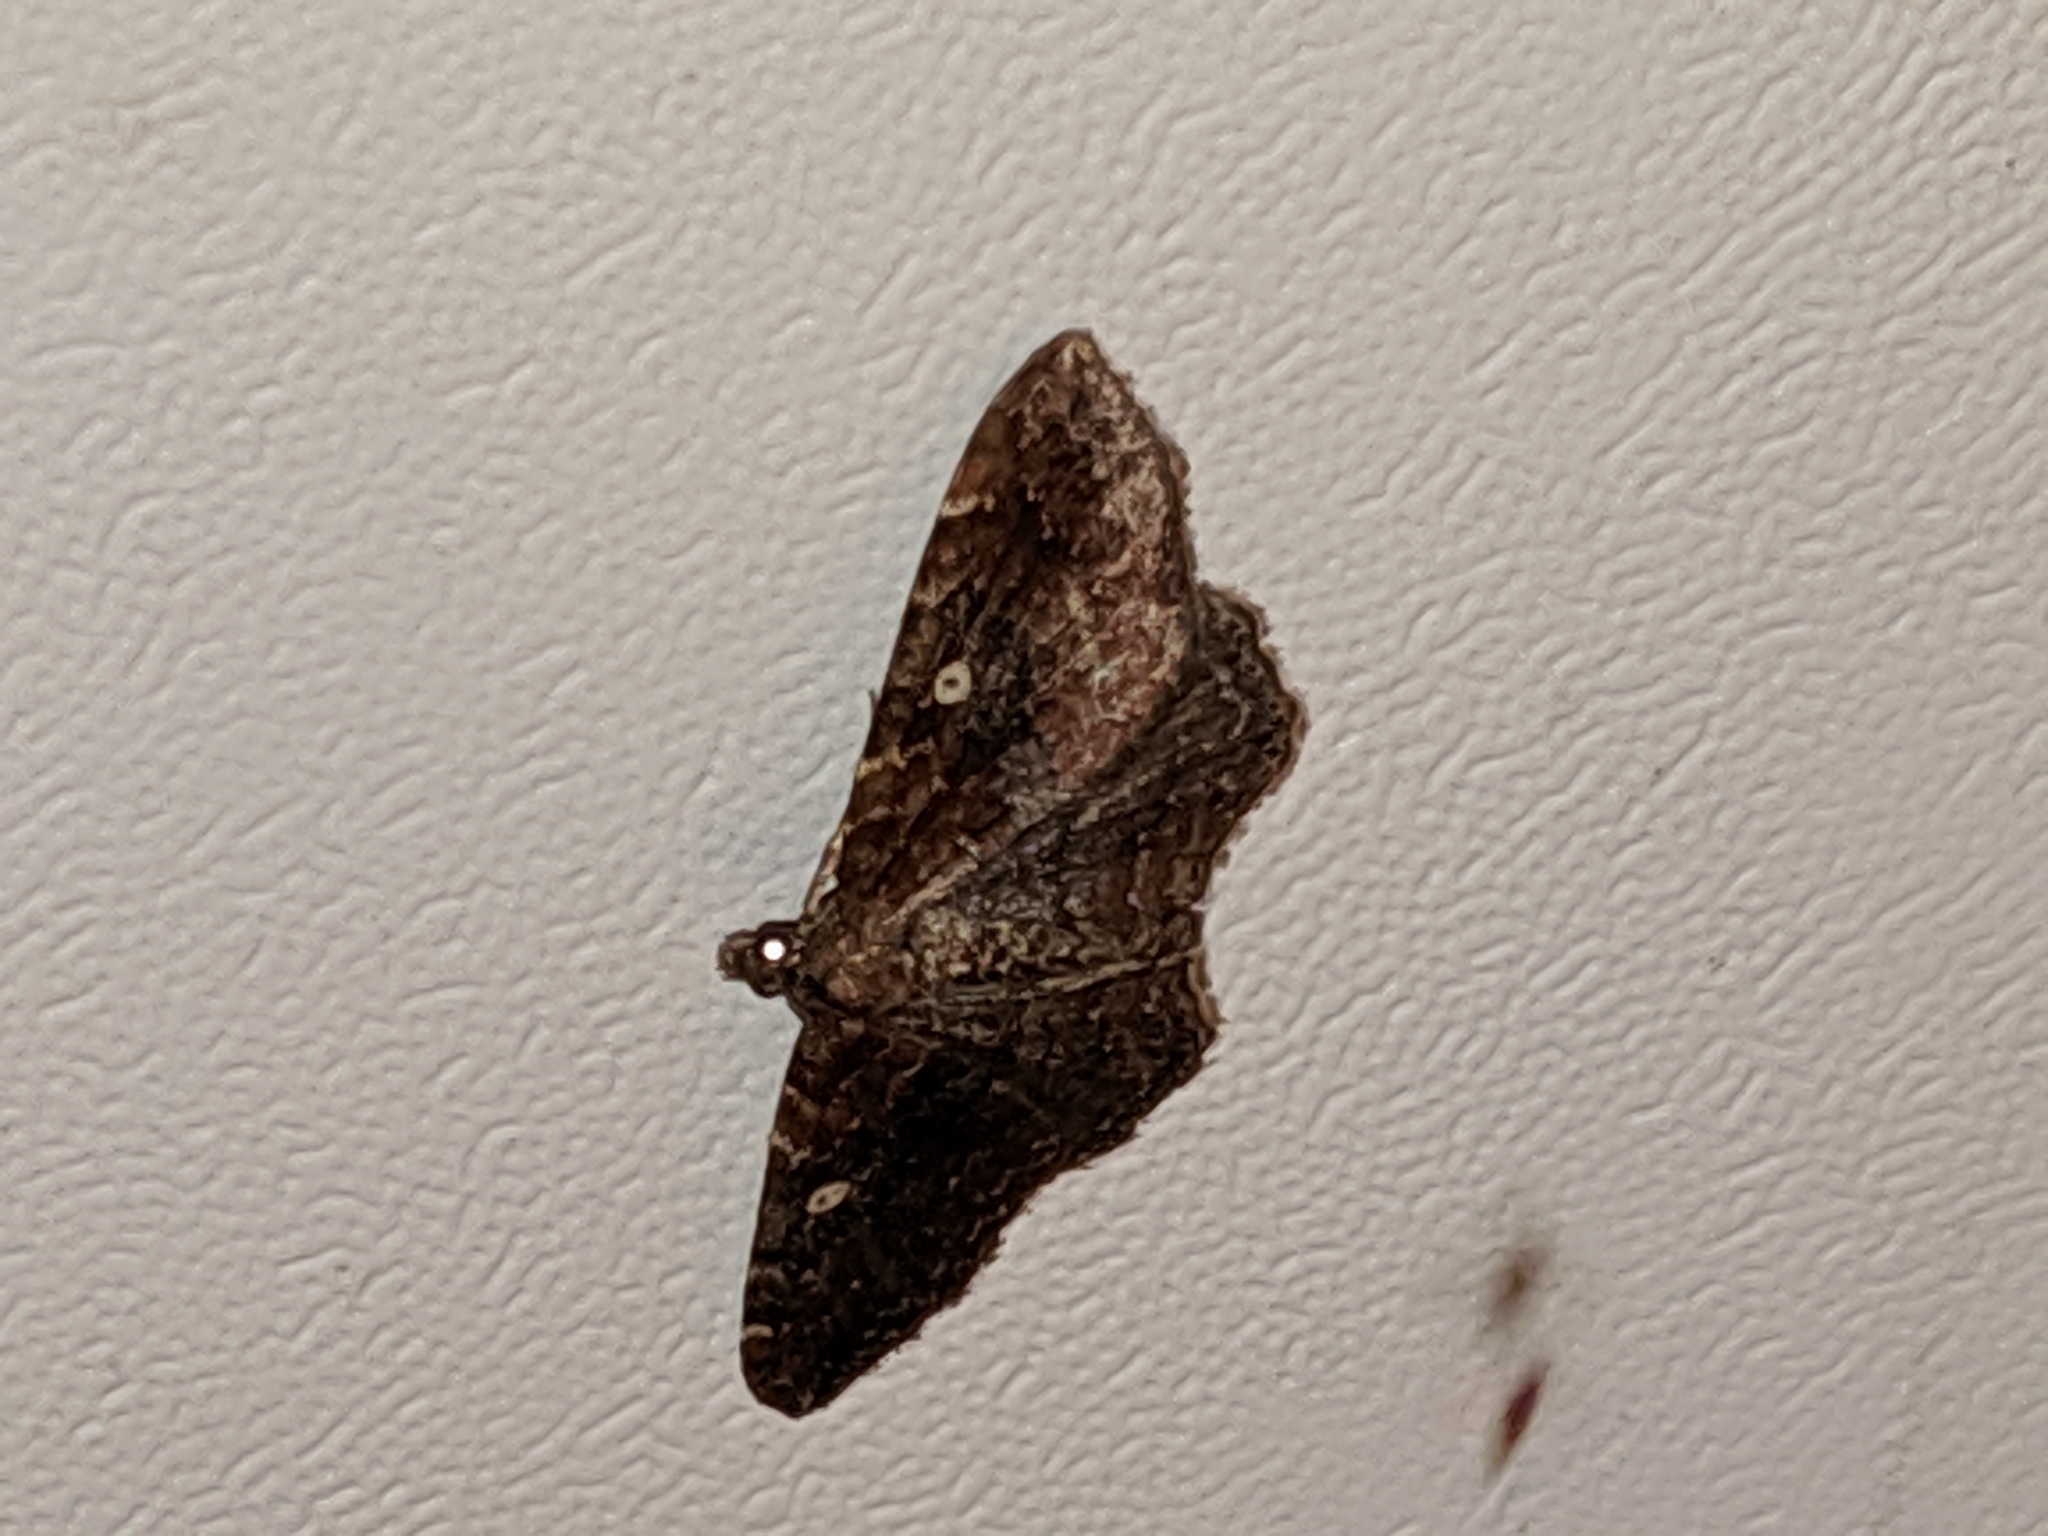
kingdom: Animalia
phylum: Arthropoda
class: Insecta
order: Lepidoptera
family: Geometridae
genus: Orthonama
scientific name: Orthonama obstipata
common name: The gem
